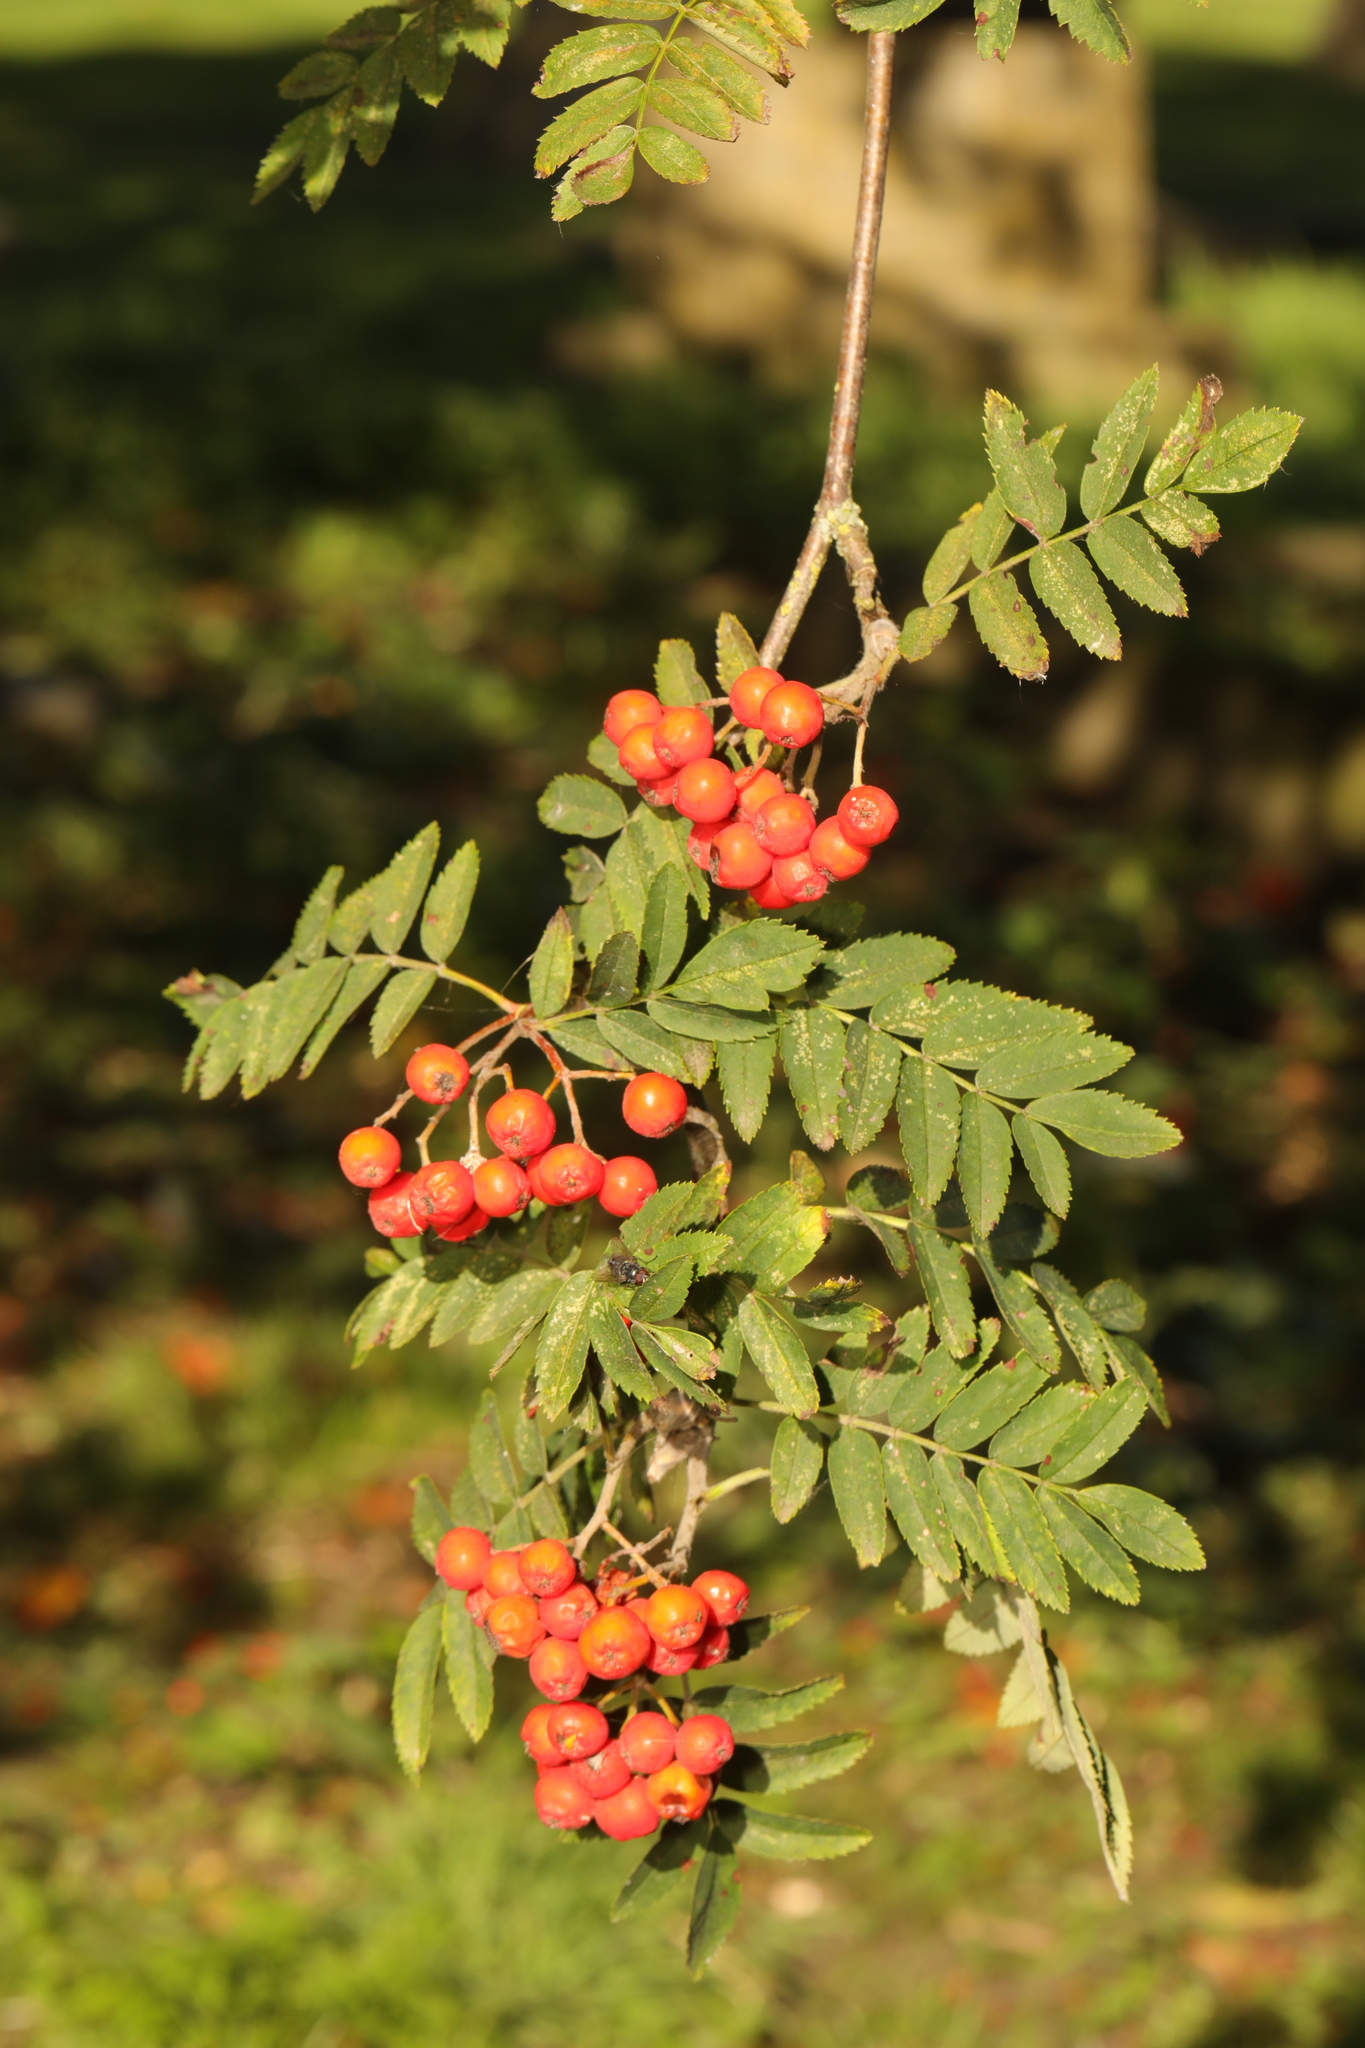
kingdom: Plantae
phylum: Tracheophyta
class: Magnoliopsida
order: Rosales
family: Rosaceae
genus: Sorbus
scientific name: Sorbus aucuparia
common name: Rowan
